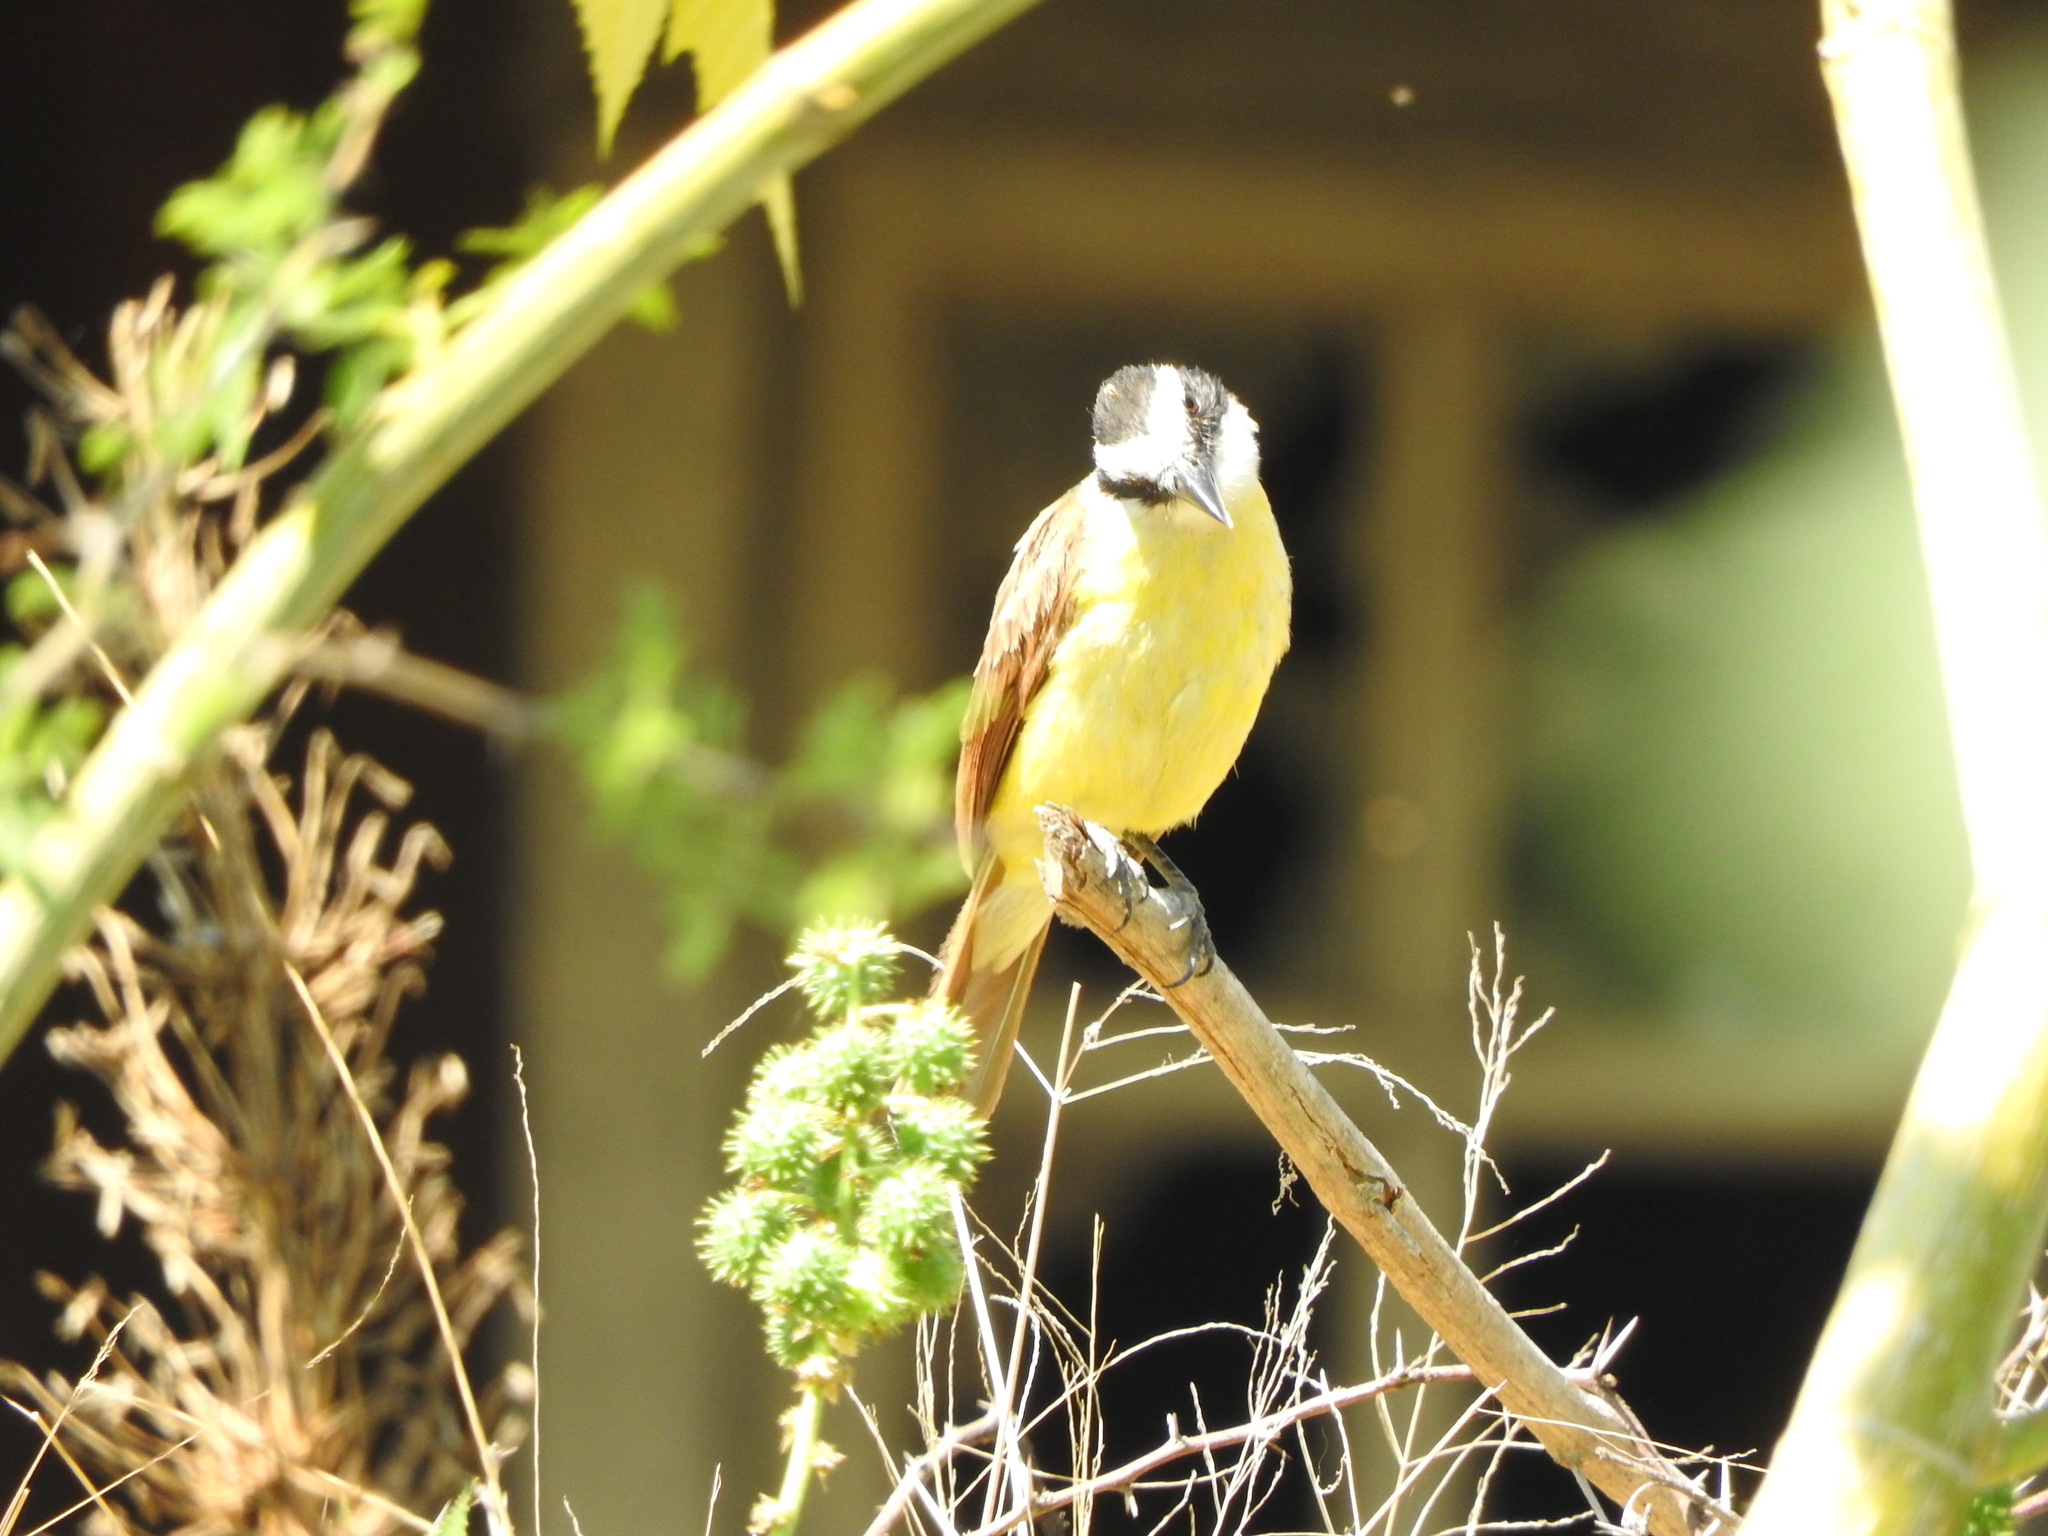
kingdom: Animalia
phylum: Chordata
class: Aves
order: Passeriformes
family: Tyrannidae
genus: Pitangus
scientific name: Pitangus sulphuratus
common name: Great kiskadee
